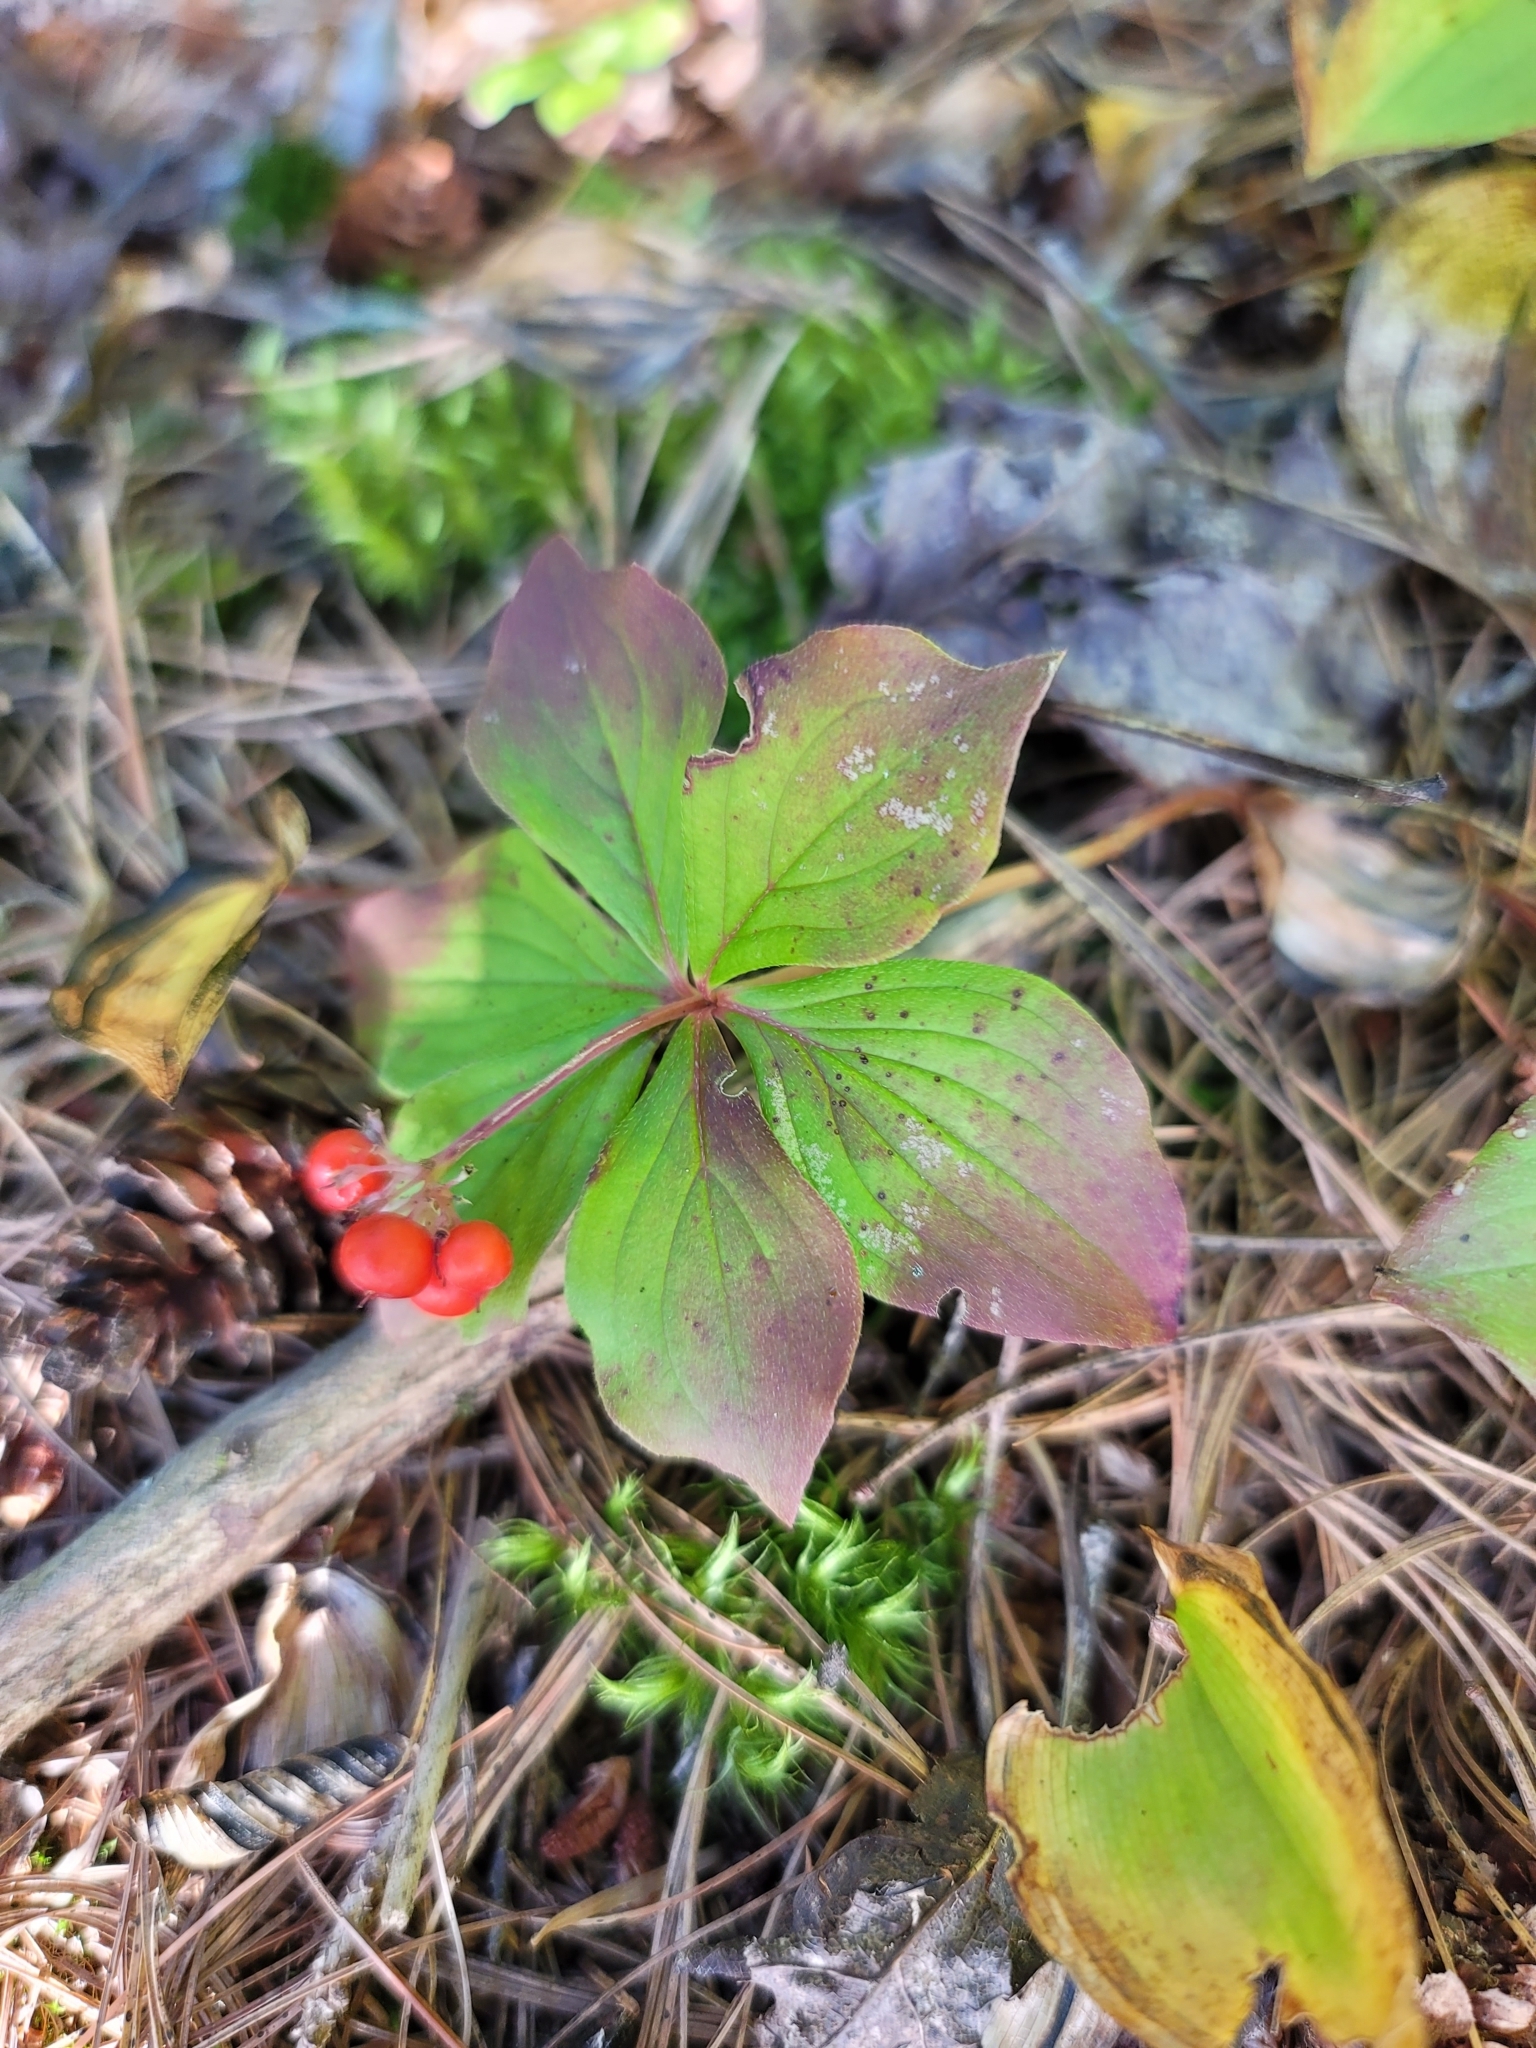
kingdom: Plantae
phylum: Tracheophyta
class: Magnoliopsida
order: Cornales
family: Cornaceae
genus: Cornus
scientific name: Cornus canadensis
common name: Creeping dogwood
